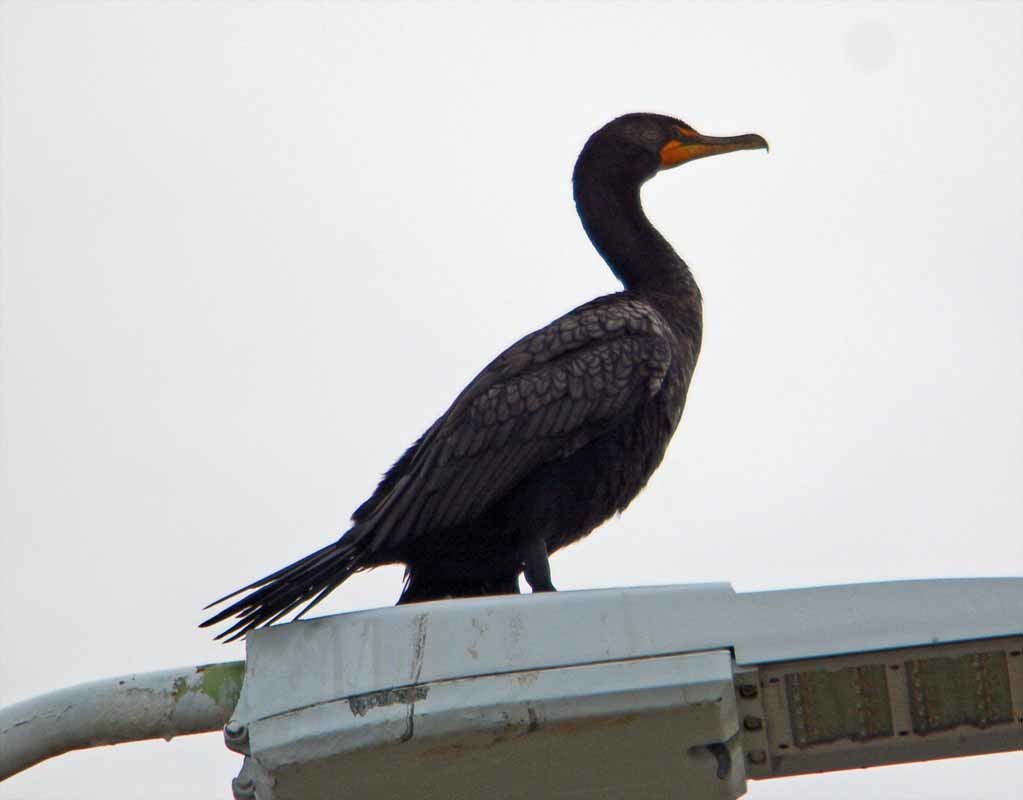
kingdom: Animalia
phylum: Chordata
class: Aves
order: Suliformes
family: Phalacrocoracidae
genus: Phalacrocorax
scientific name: Phalacrocorax auritus
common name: Double-crested cormorant
